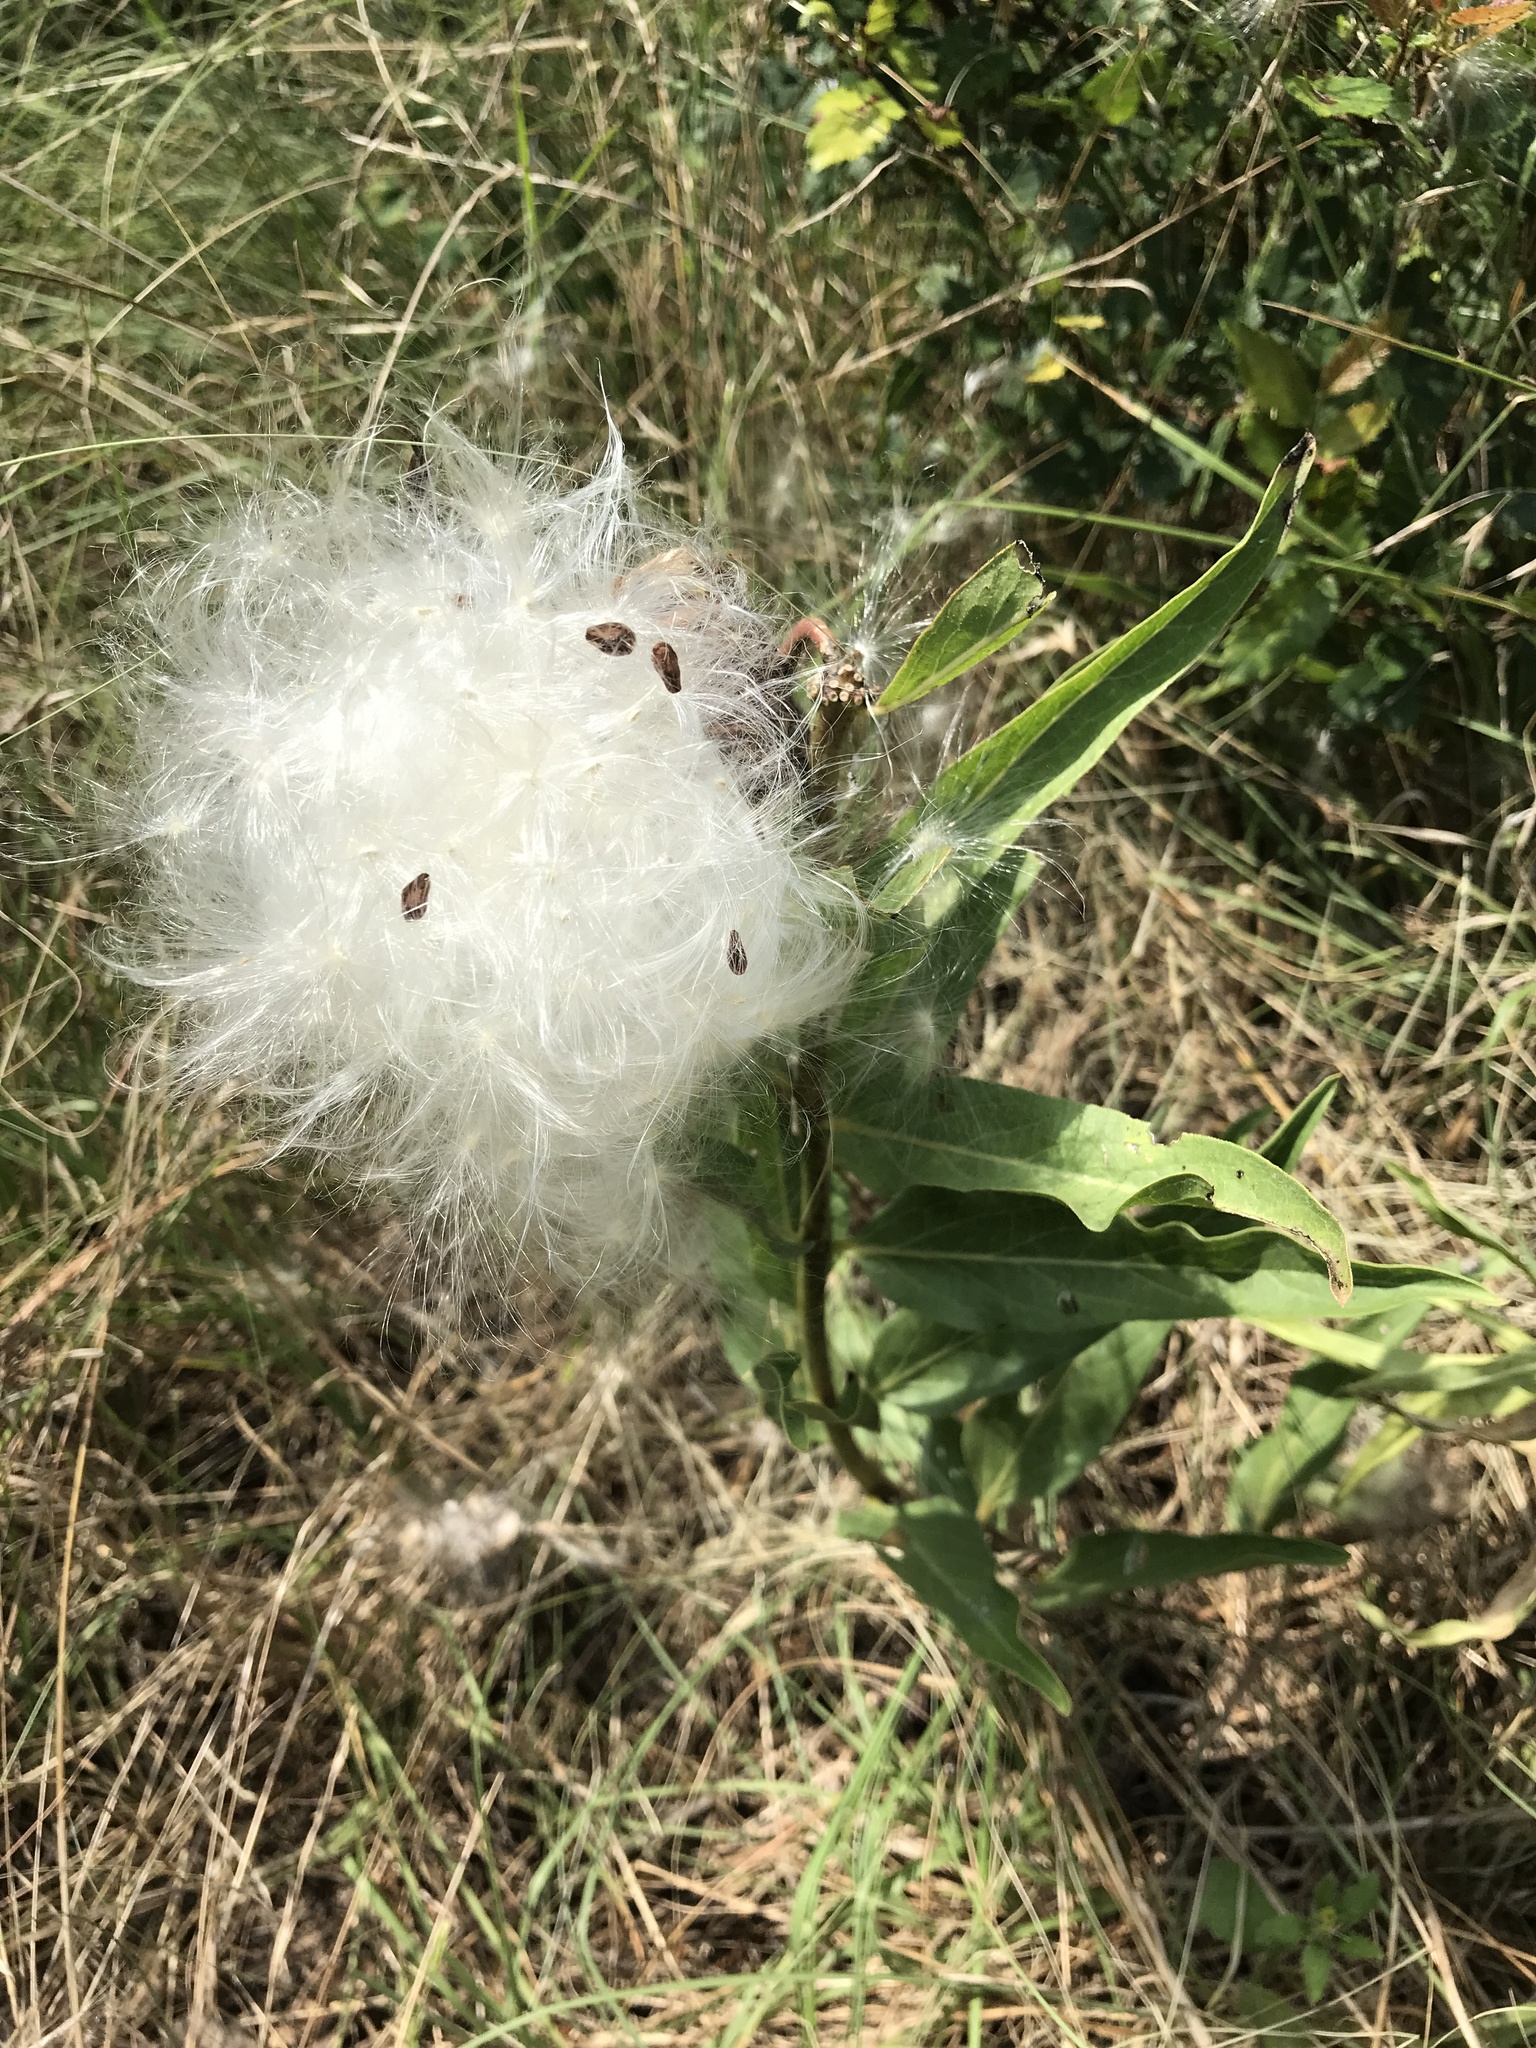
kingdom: Plantae
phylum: Tracheophyta
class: Magnoliopsida
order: Gentianales
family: Apocynaceae
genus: Asclepias
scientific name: Asclepias asperula
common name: Antelope horns
